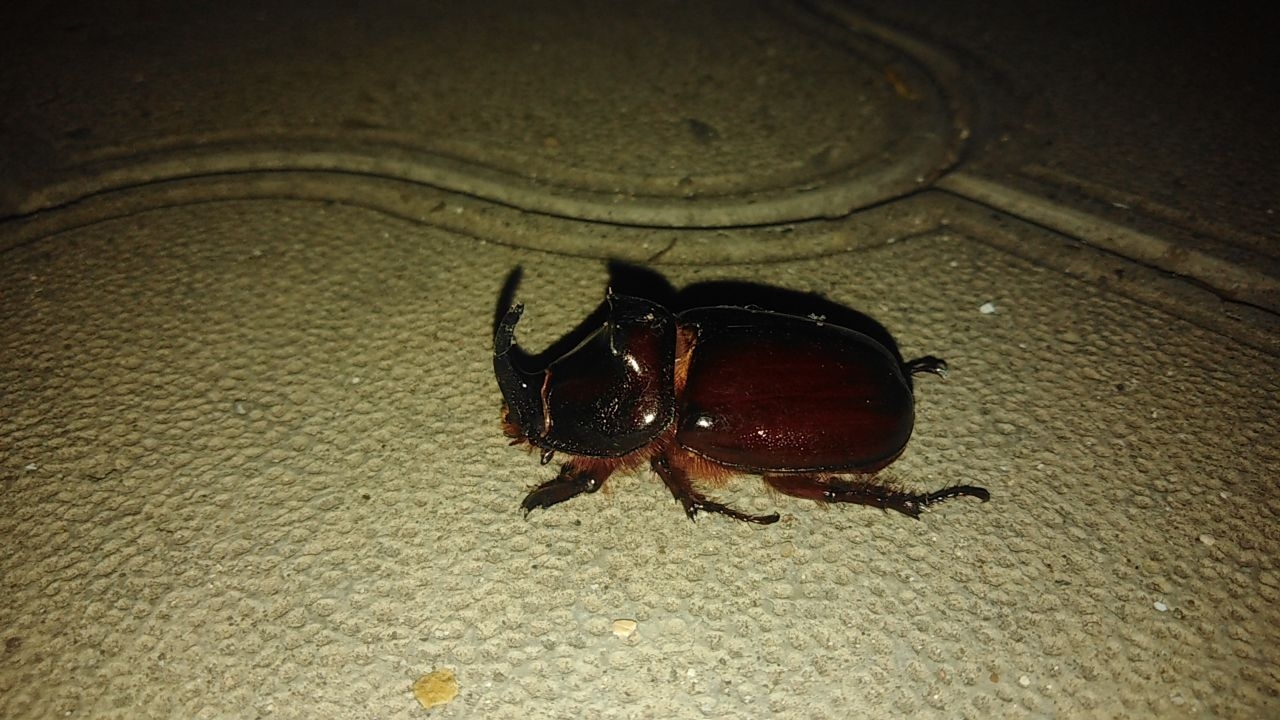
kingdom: Animalia
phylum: Arthropoda
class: Insecta
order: Coleoptera
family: Scarabaeidae
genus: Oryctes
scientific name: Oryctes nasicornis
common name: European rhinoceros beetle
